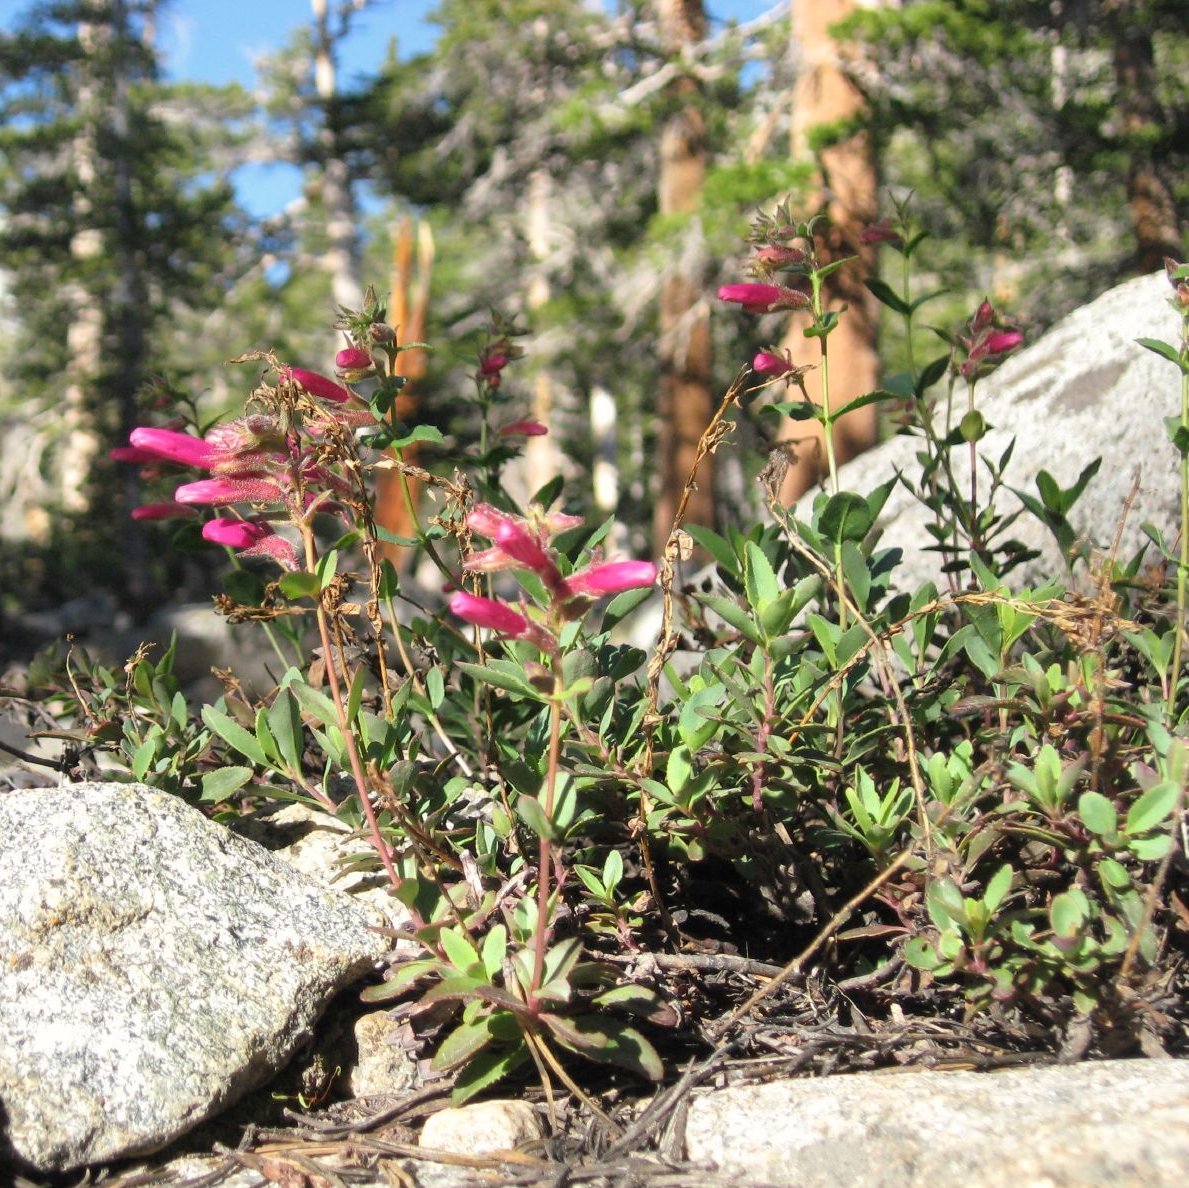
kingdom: Plantae
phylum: Tracheophyta
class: Magnoliopsida
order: Lamiales
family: Plantaginaceae
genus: Penstemon
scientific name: Penstemon newberryi
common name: Mountain-pride
